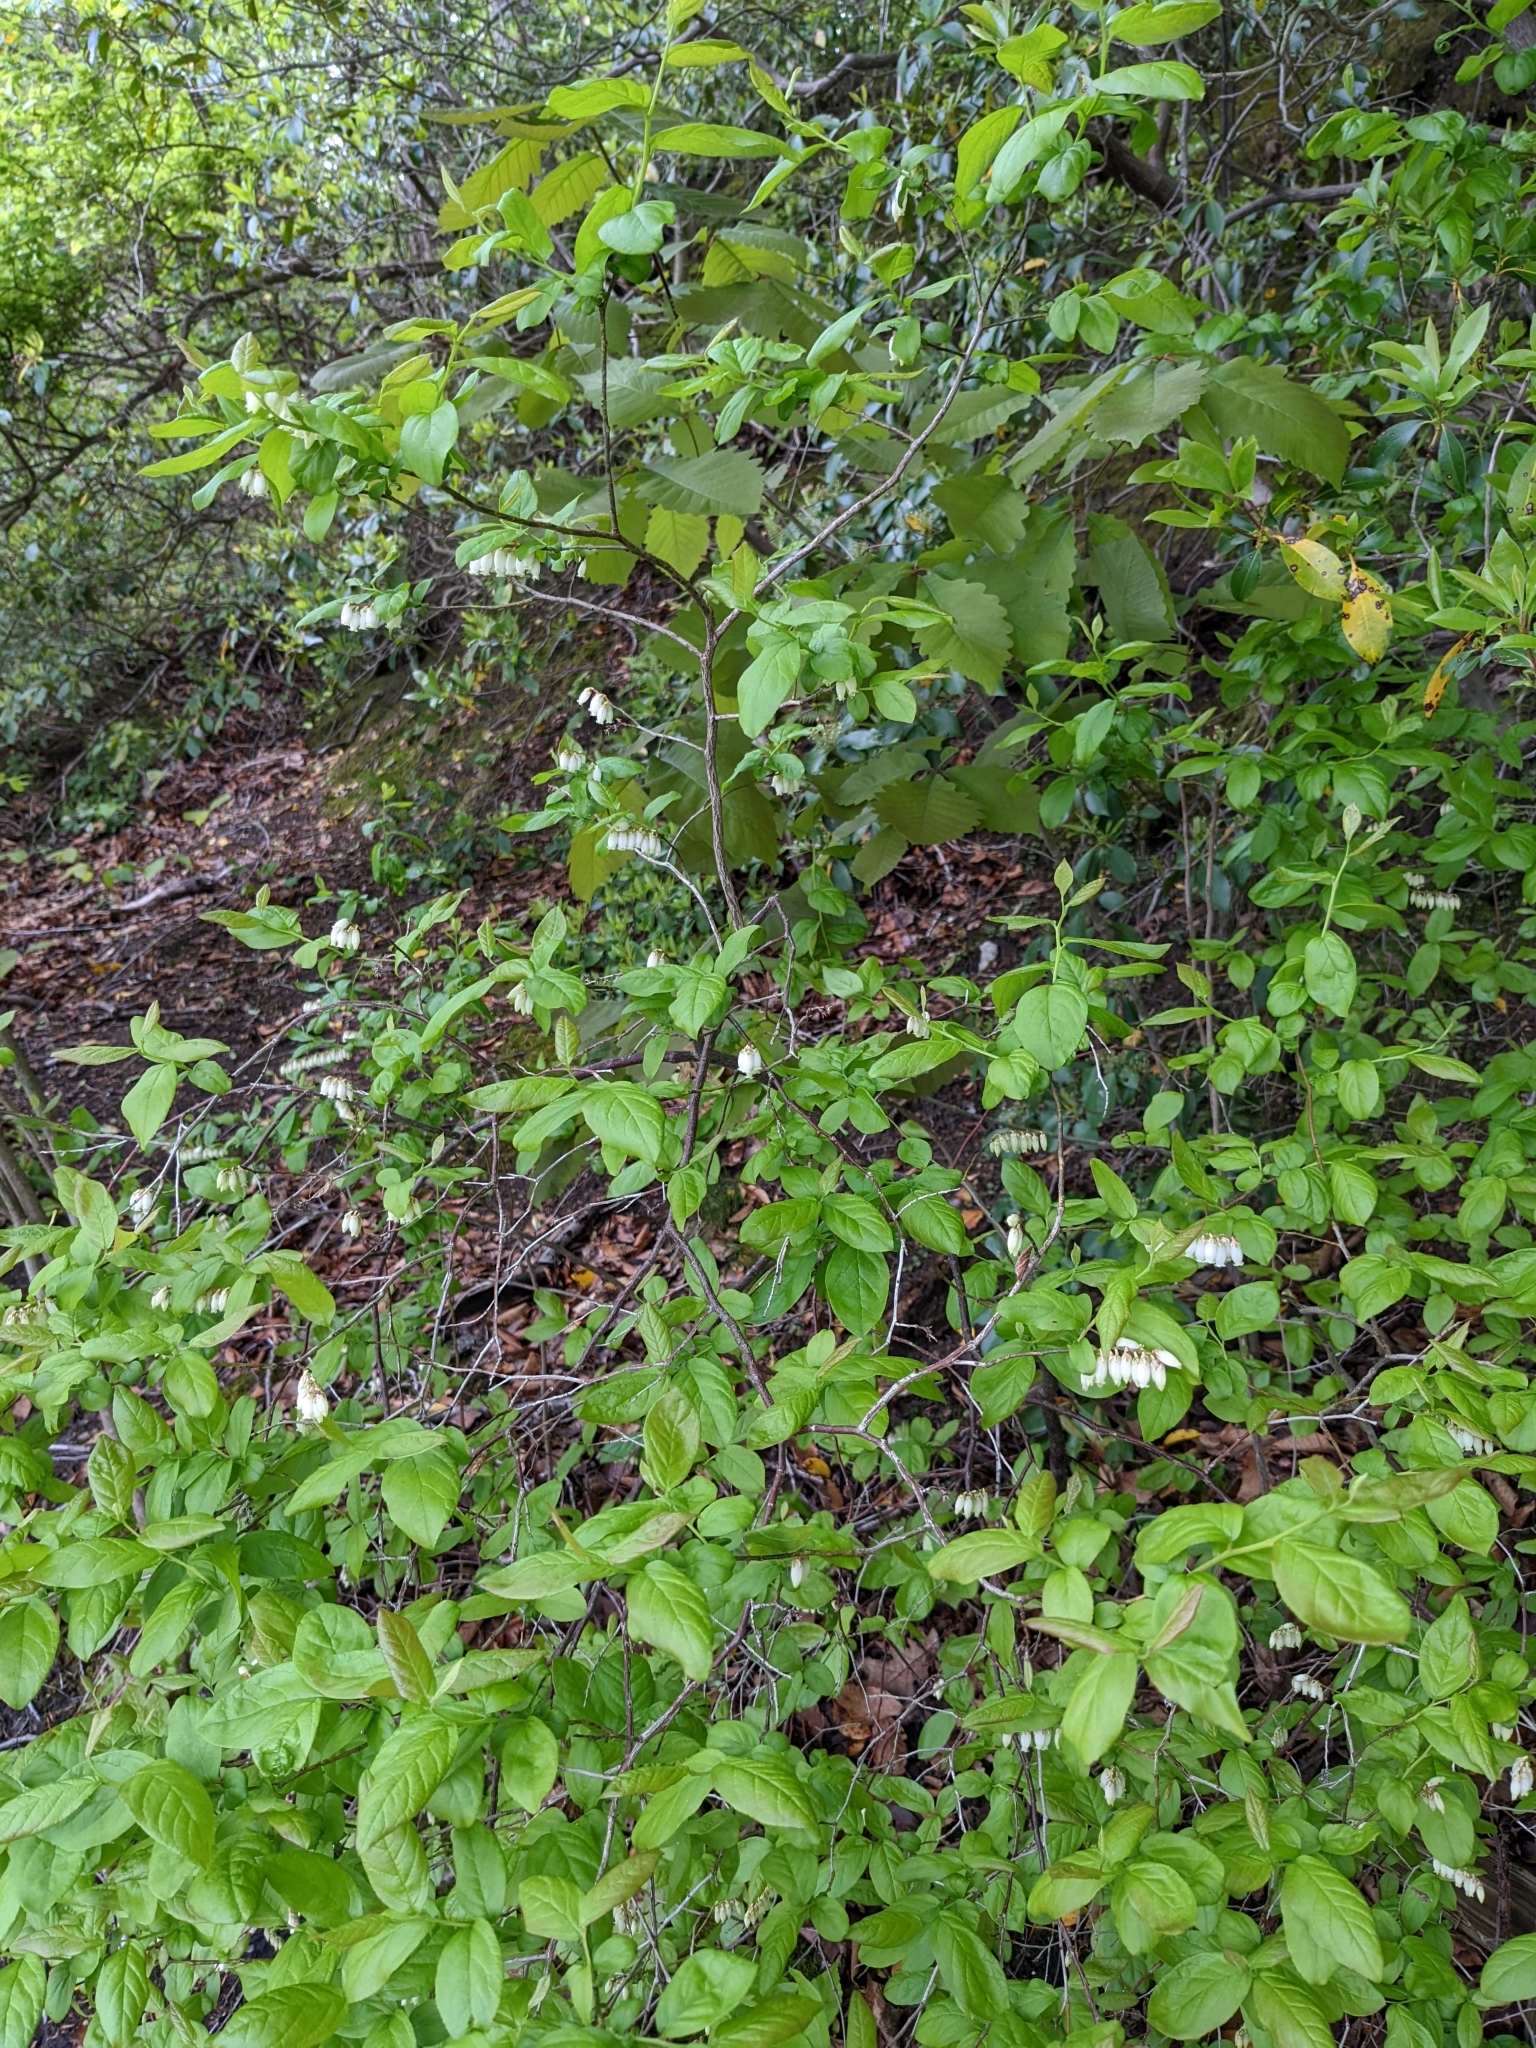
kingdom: Plantae
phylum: Tracheophyta
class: Magnoliopsida
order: Ericales
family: Ericaceae
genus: Eubotrys
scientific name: Eubotrys racemosa
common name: Fetterbush
